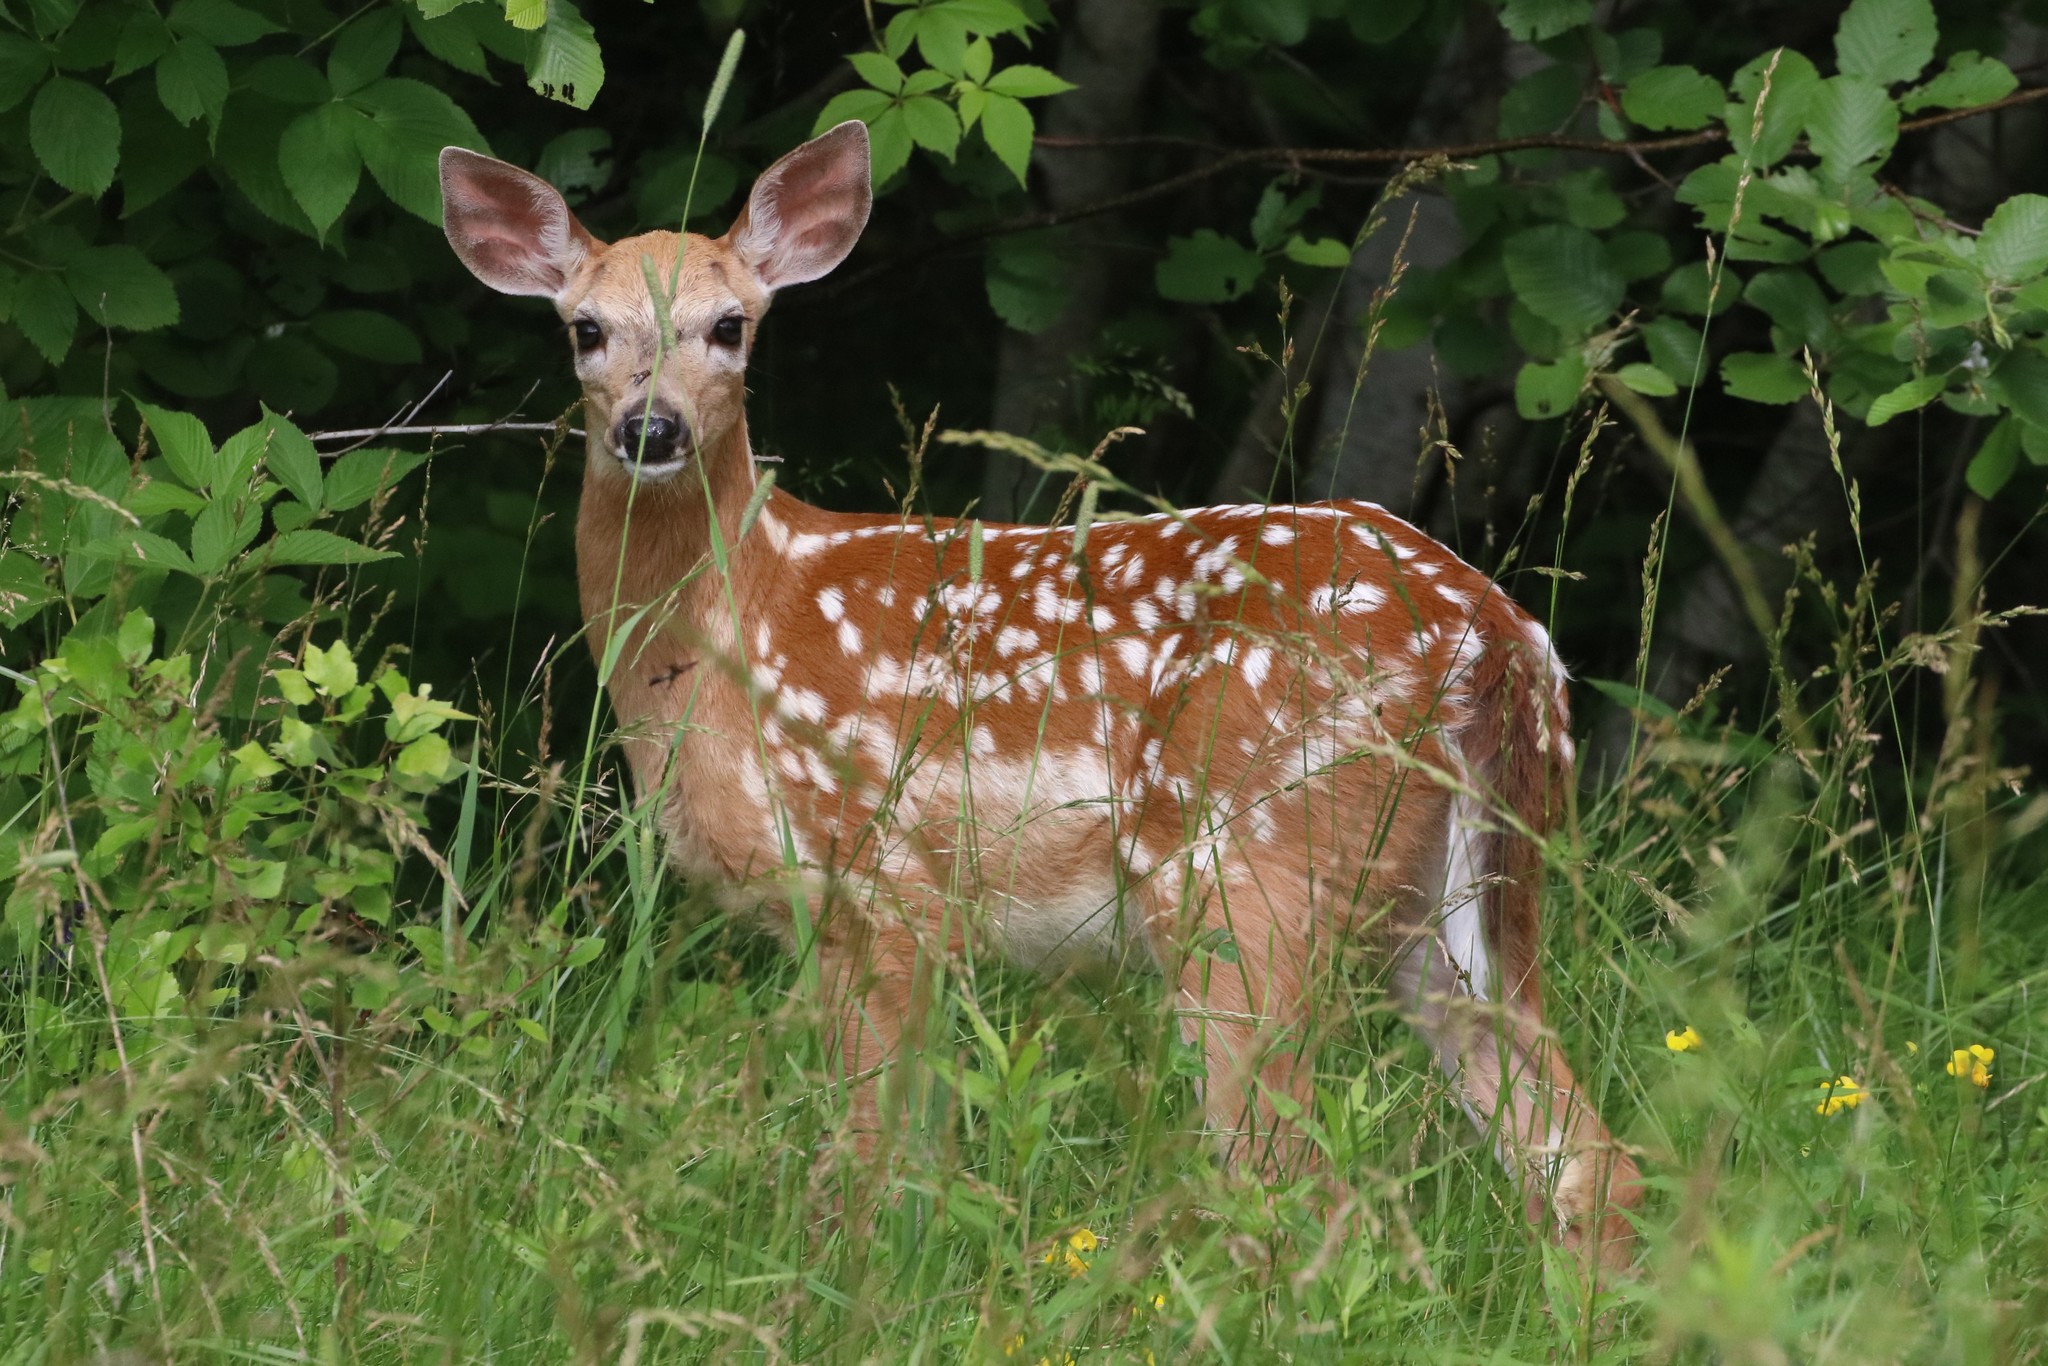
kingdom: Animalia
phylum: Chordata
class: Mammalia
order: Artiodactyla
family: Cervidae
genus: Odocoileus
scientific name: Odocoileus virginianus
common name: White-tailed deer
